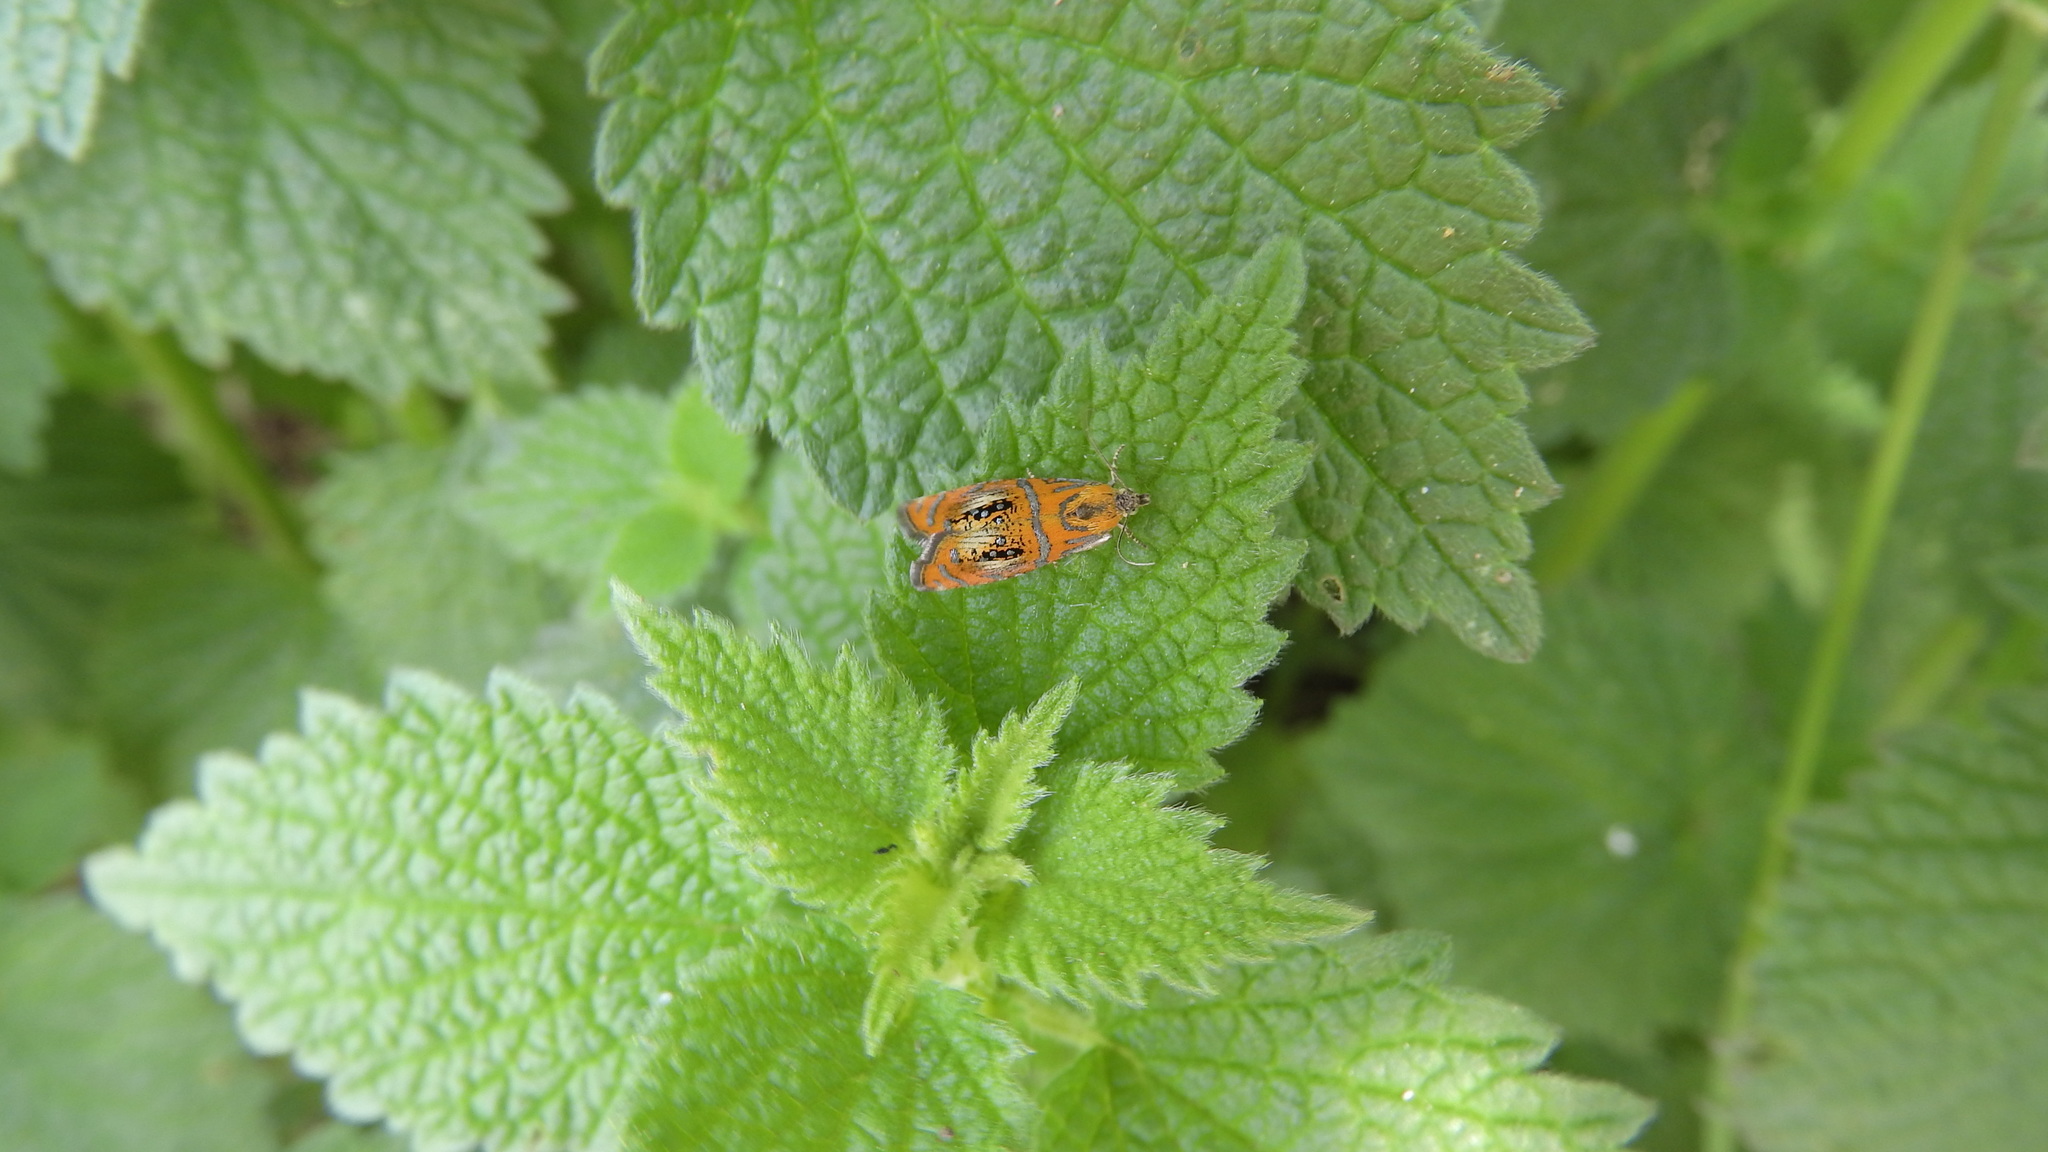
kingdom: Animalia
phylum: Arthropoda
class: Insecta
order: Lepidoptera
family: Tortricidae
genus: Olethreutes
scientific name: Olethreutes arcuella
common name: Arched marble
